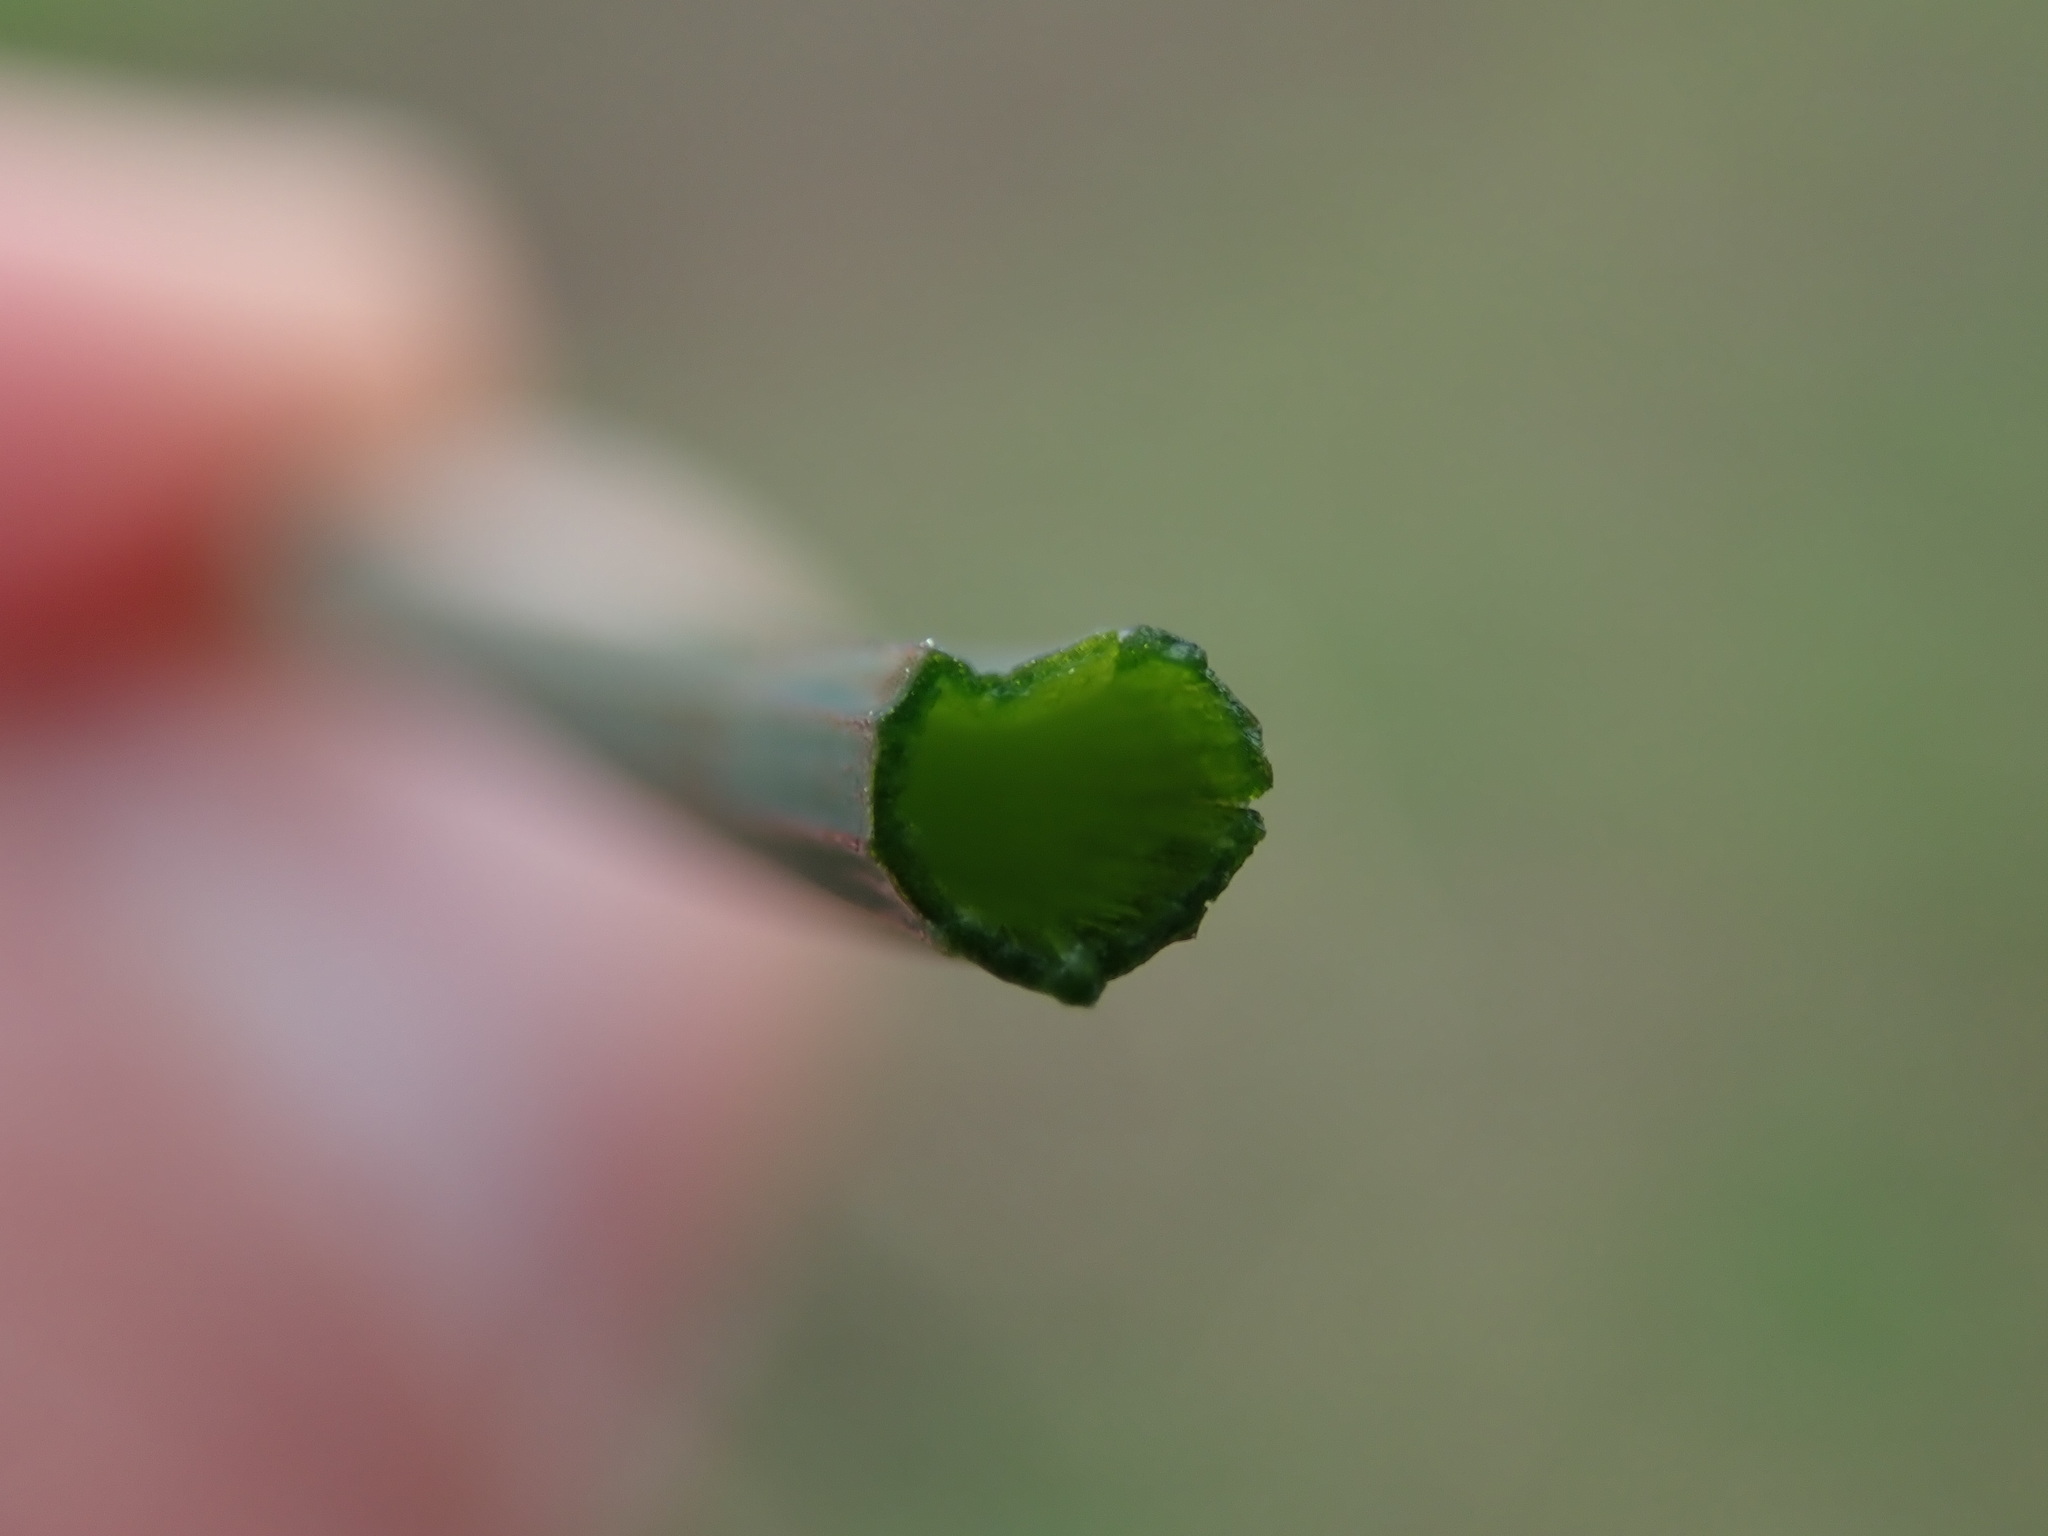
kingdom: Plantae
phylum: Tracheophyta
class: Liliopsida
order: Asparagales
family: Amaryllidaceae
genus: Allium
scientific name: Allium vineale
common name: Crow garlic
